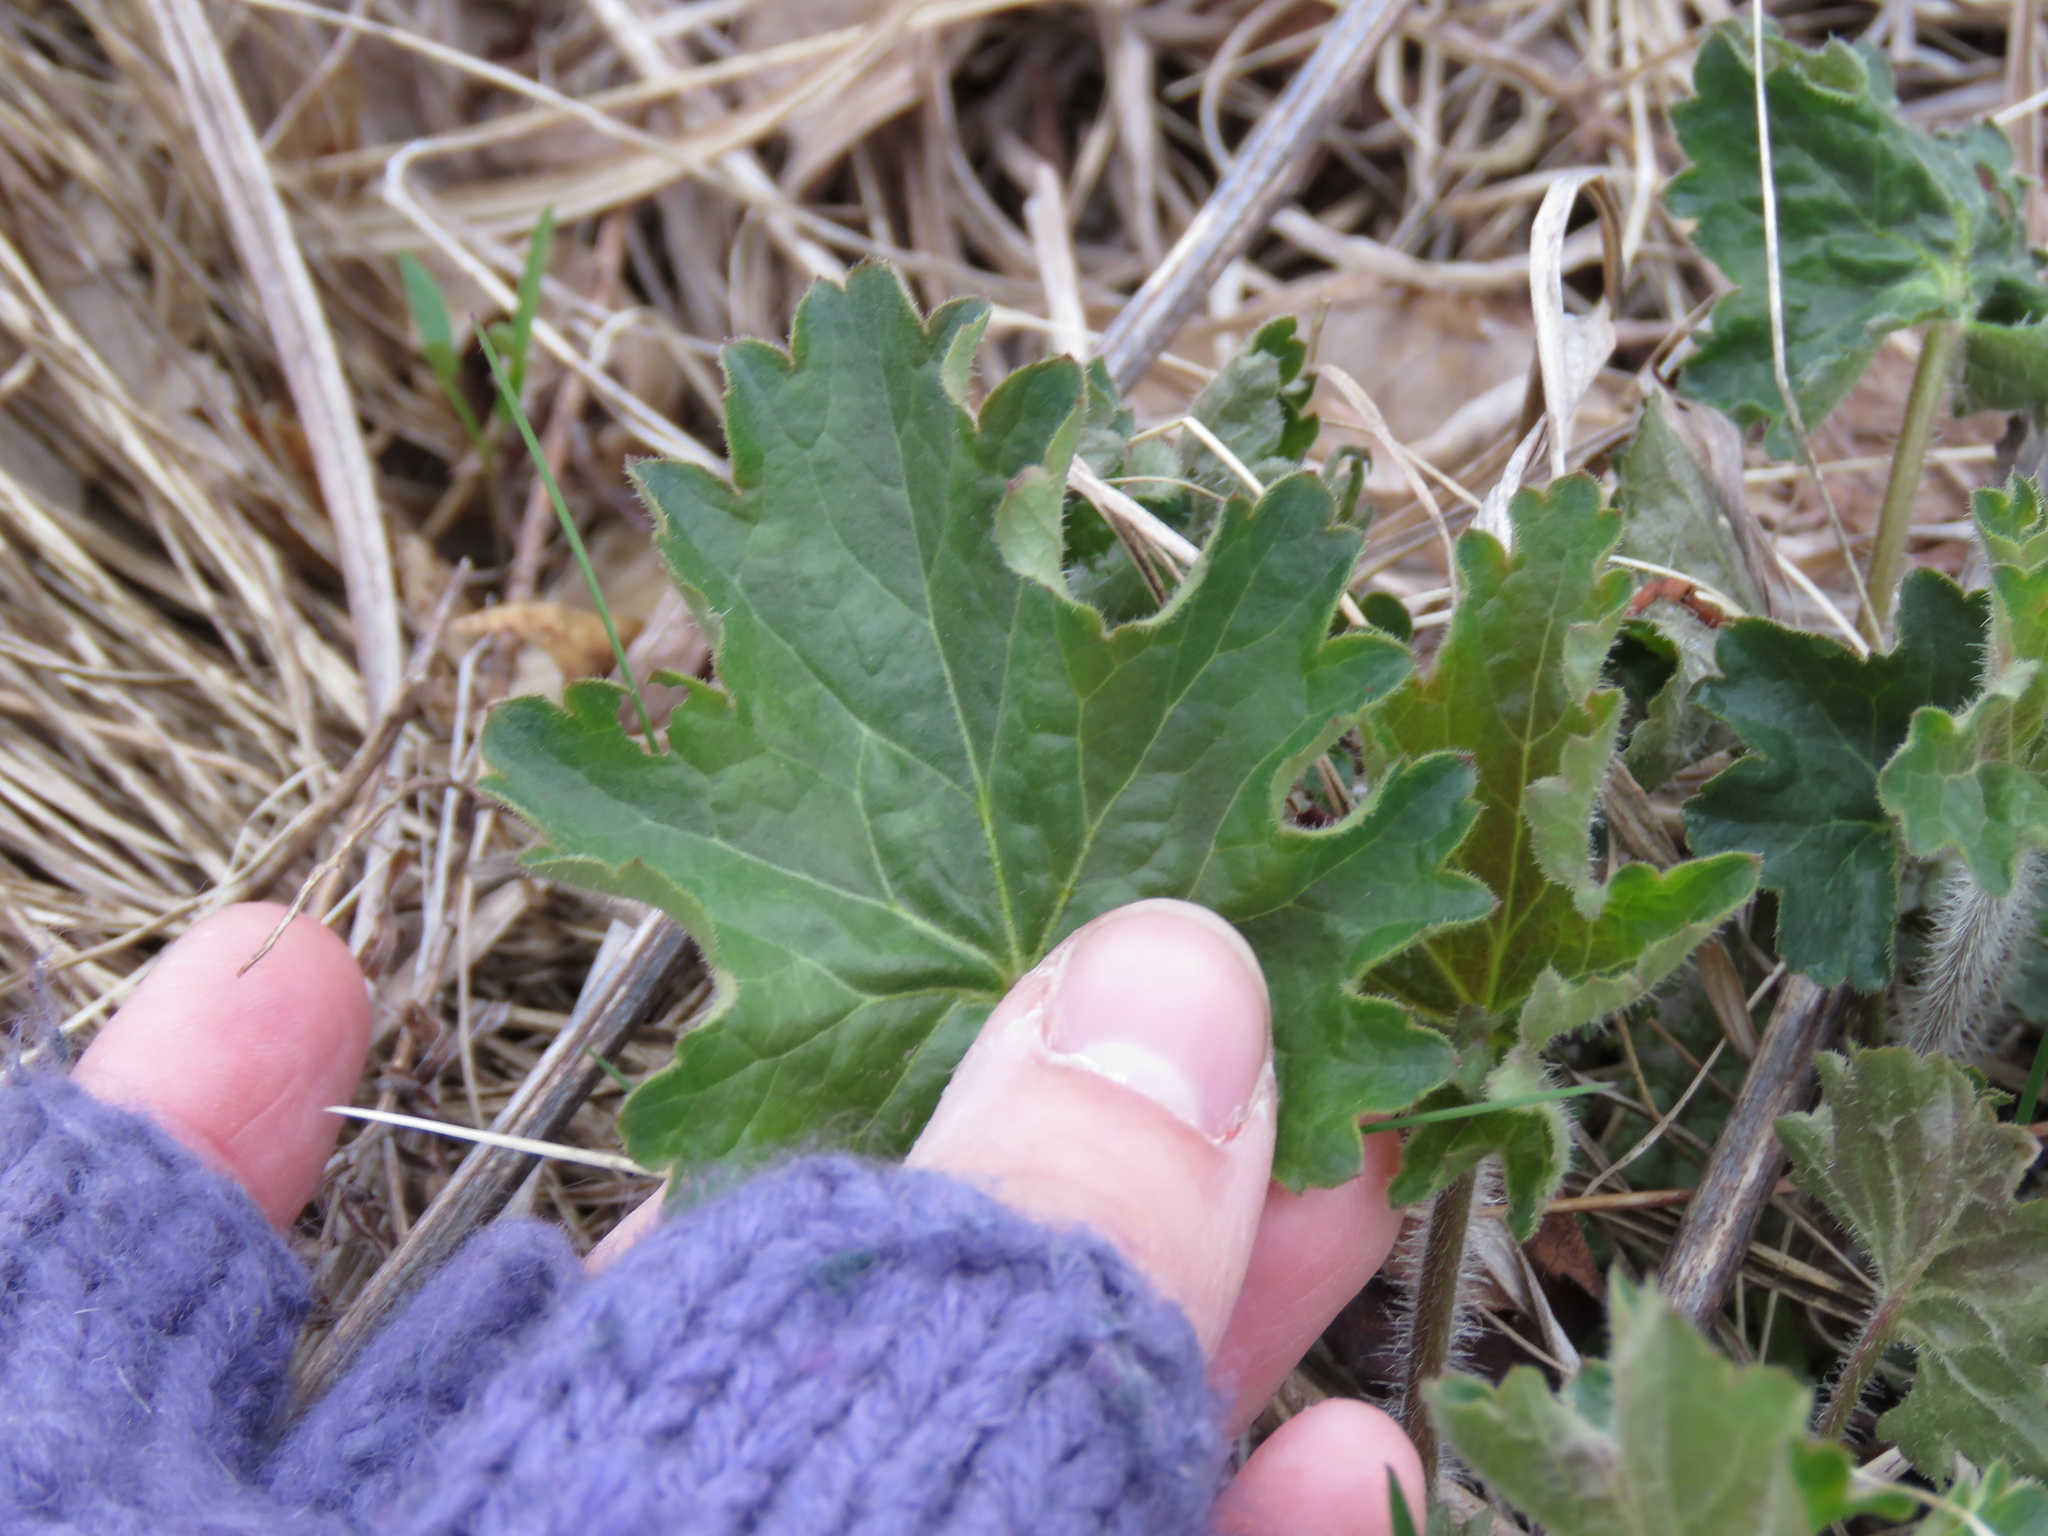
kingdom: Plantae
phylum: Tracheophyta
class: Magnoliopsida
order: Saxifragales
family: Saxifragaceae
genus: Heuchera
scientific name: Heuchera richardsonii
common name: Richardson's alumroot
